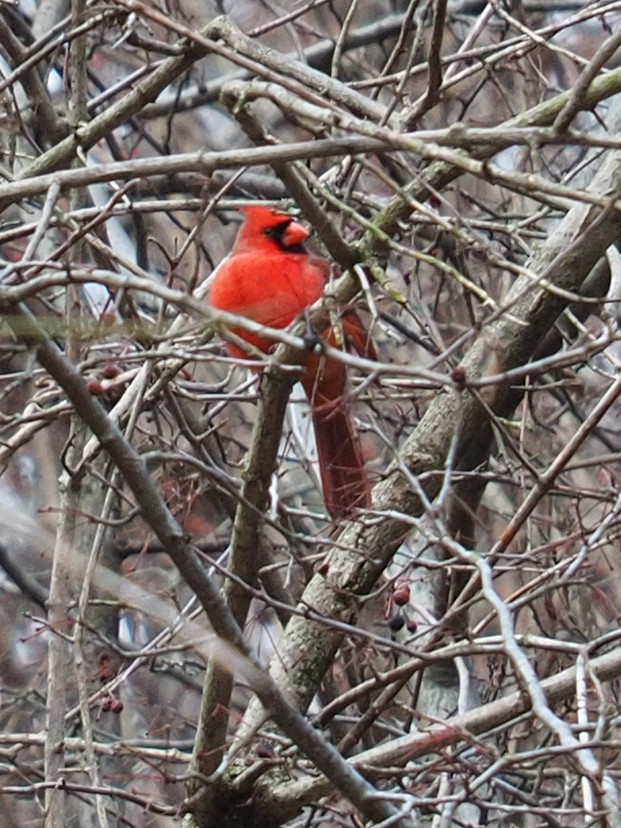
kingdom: Animalia
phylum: Chordata
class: Aves
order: Passeriformes
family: Cardinalidae
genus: Cardinalis
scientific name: Cardinalis cardinalis
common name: Northern cardinal
